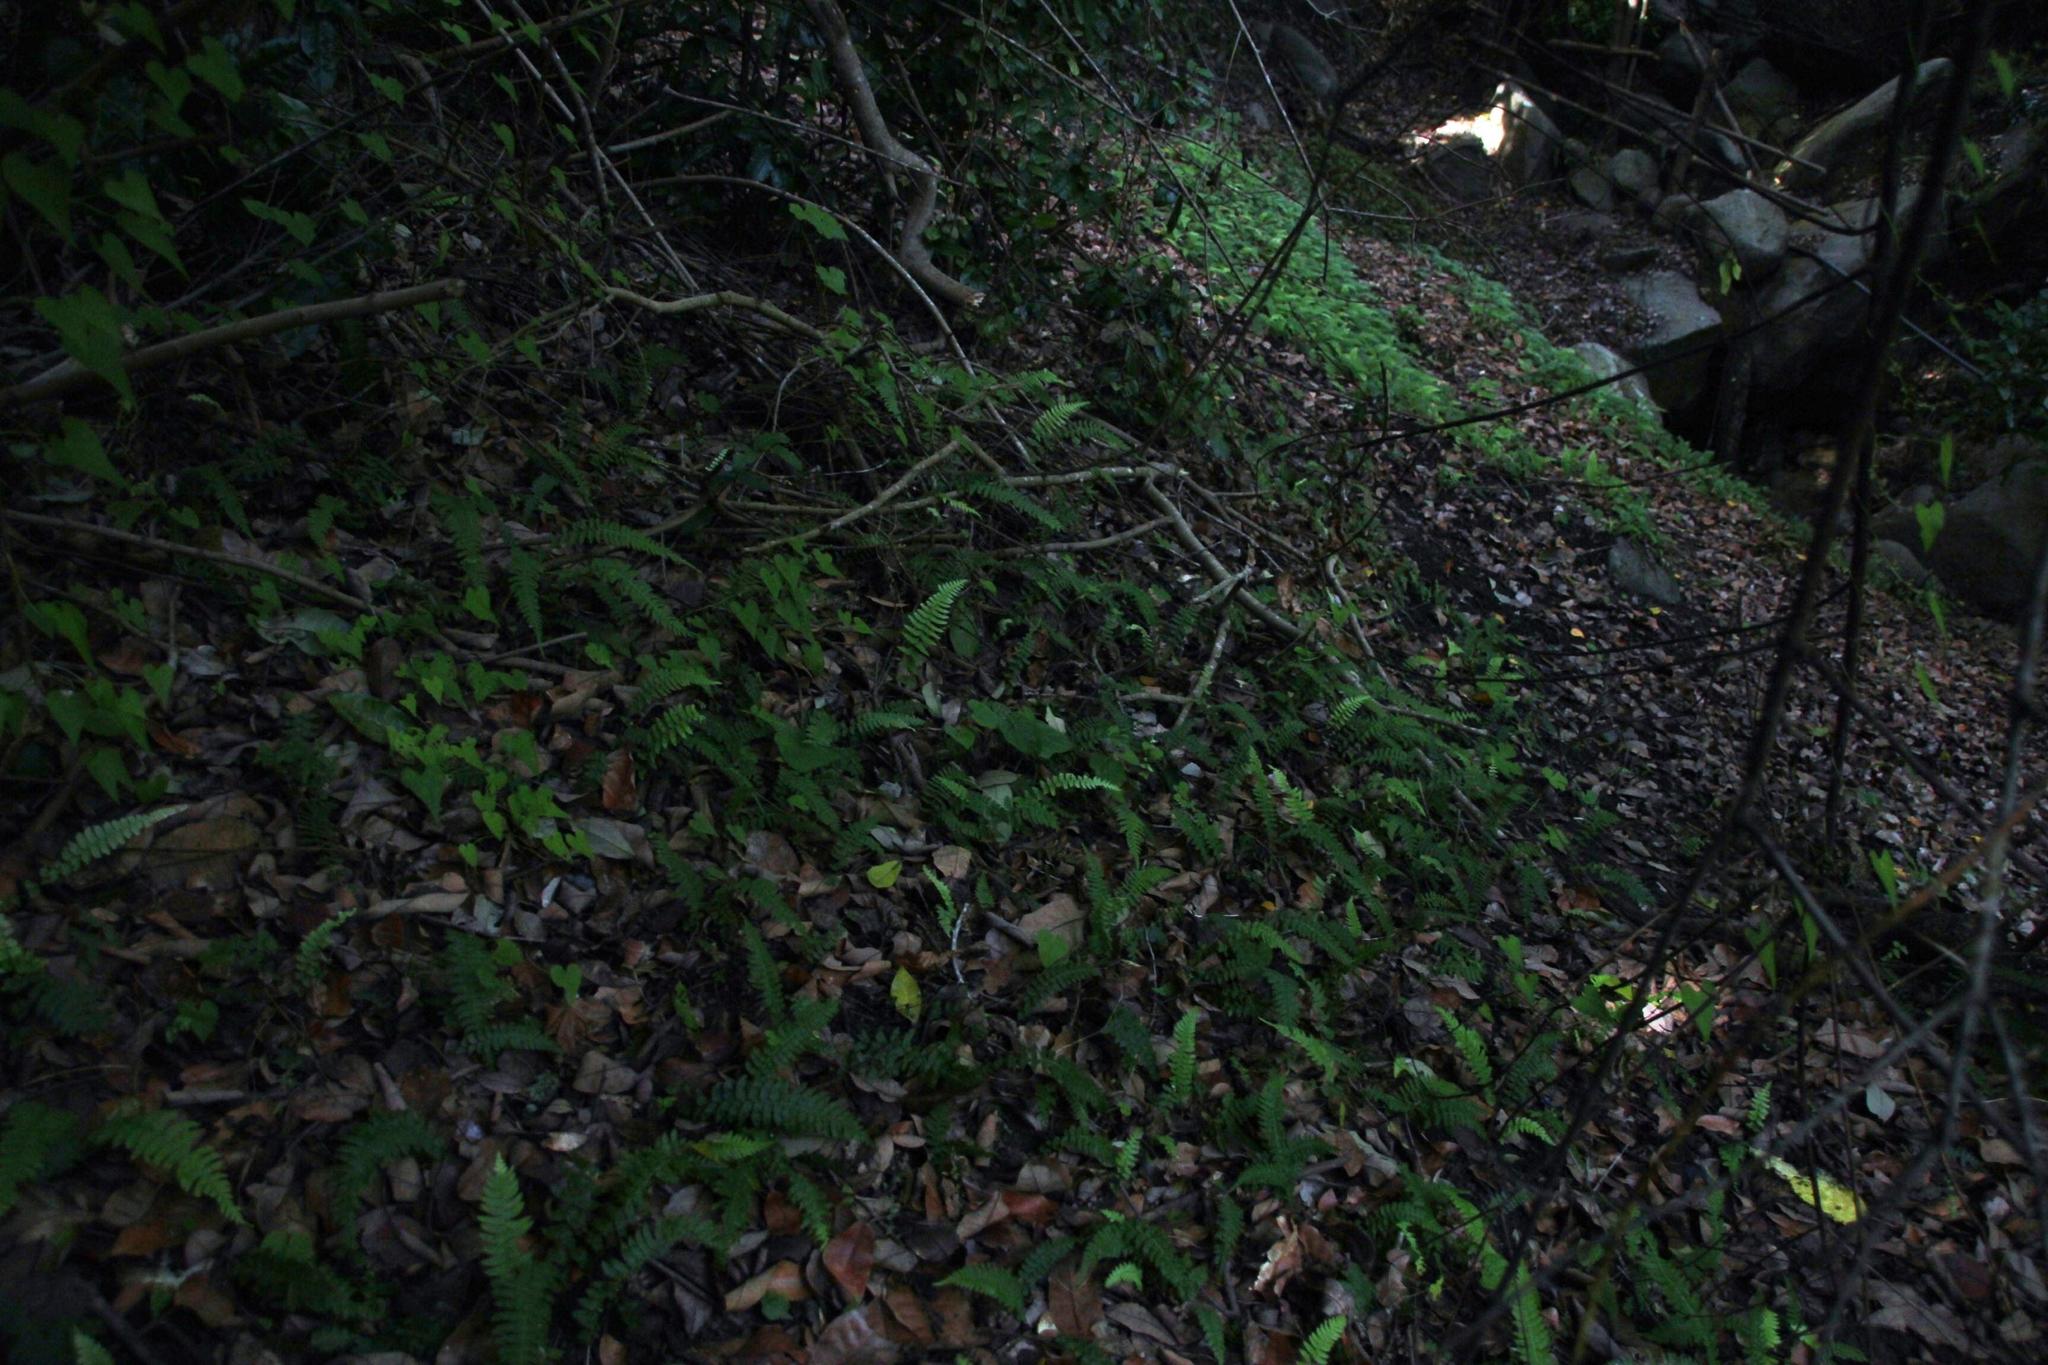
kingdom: Plantae
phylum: Tracheophyta
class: Polypodiopsida
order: Polypodiales
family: Blechnaceae
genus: Blechnum
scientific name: Blechnum hastatum
